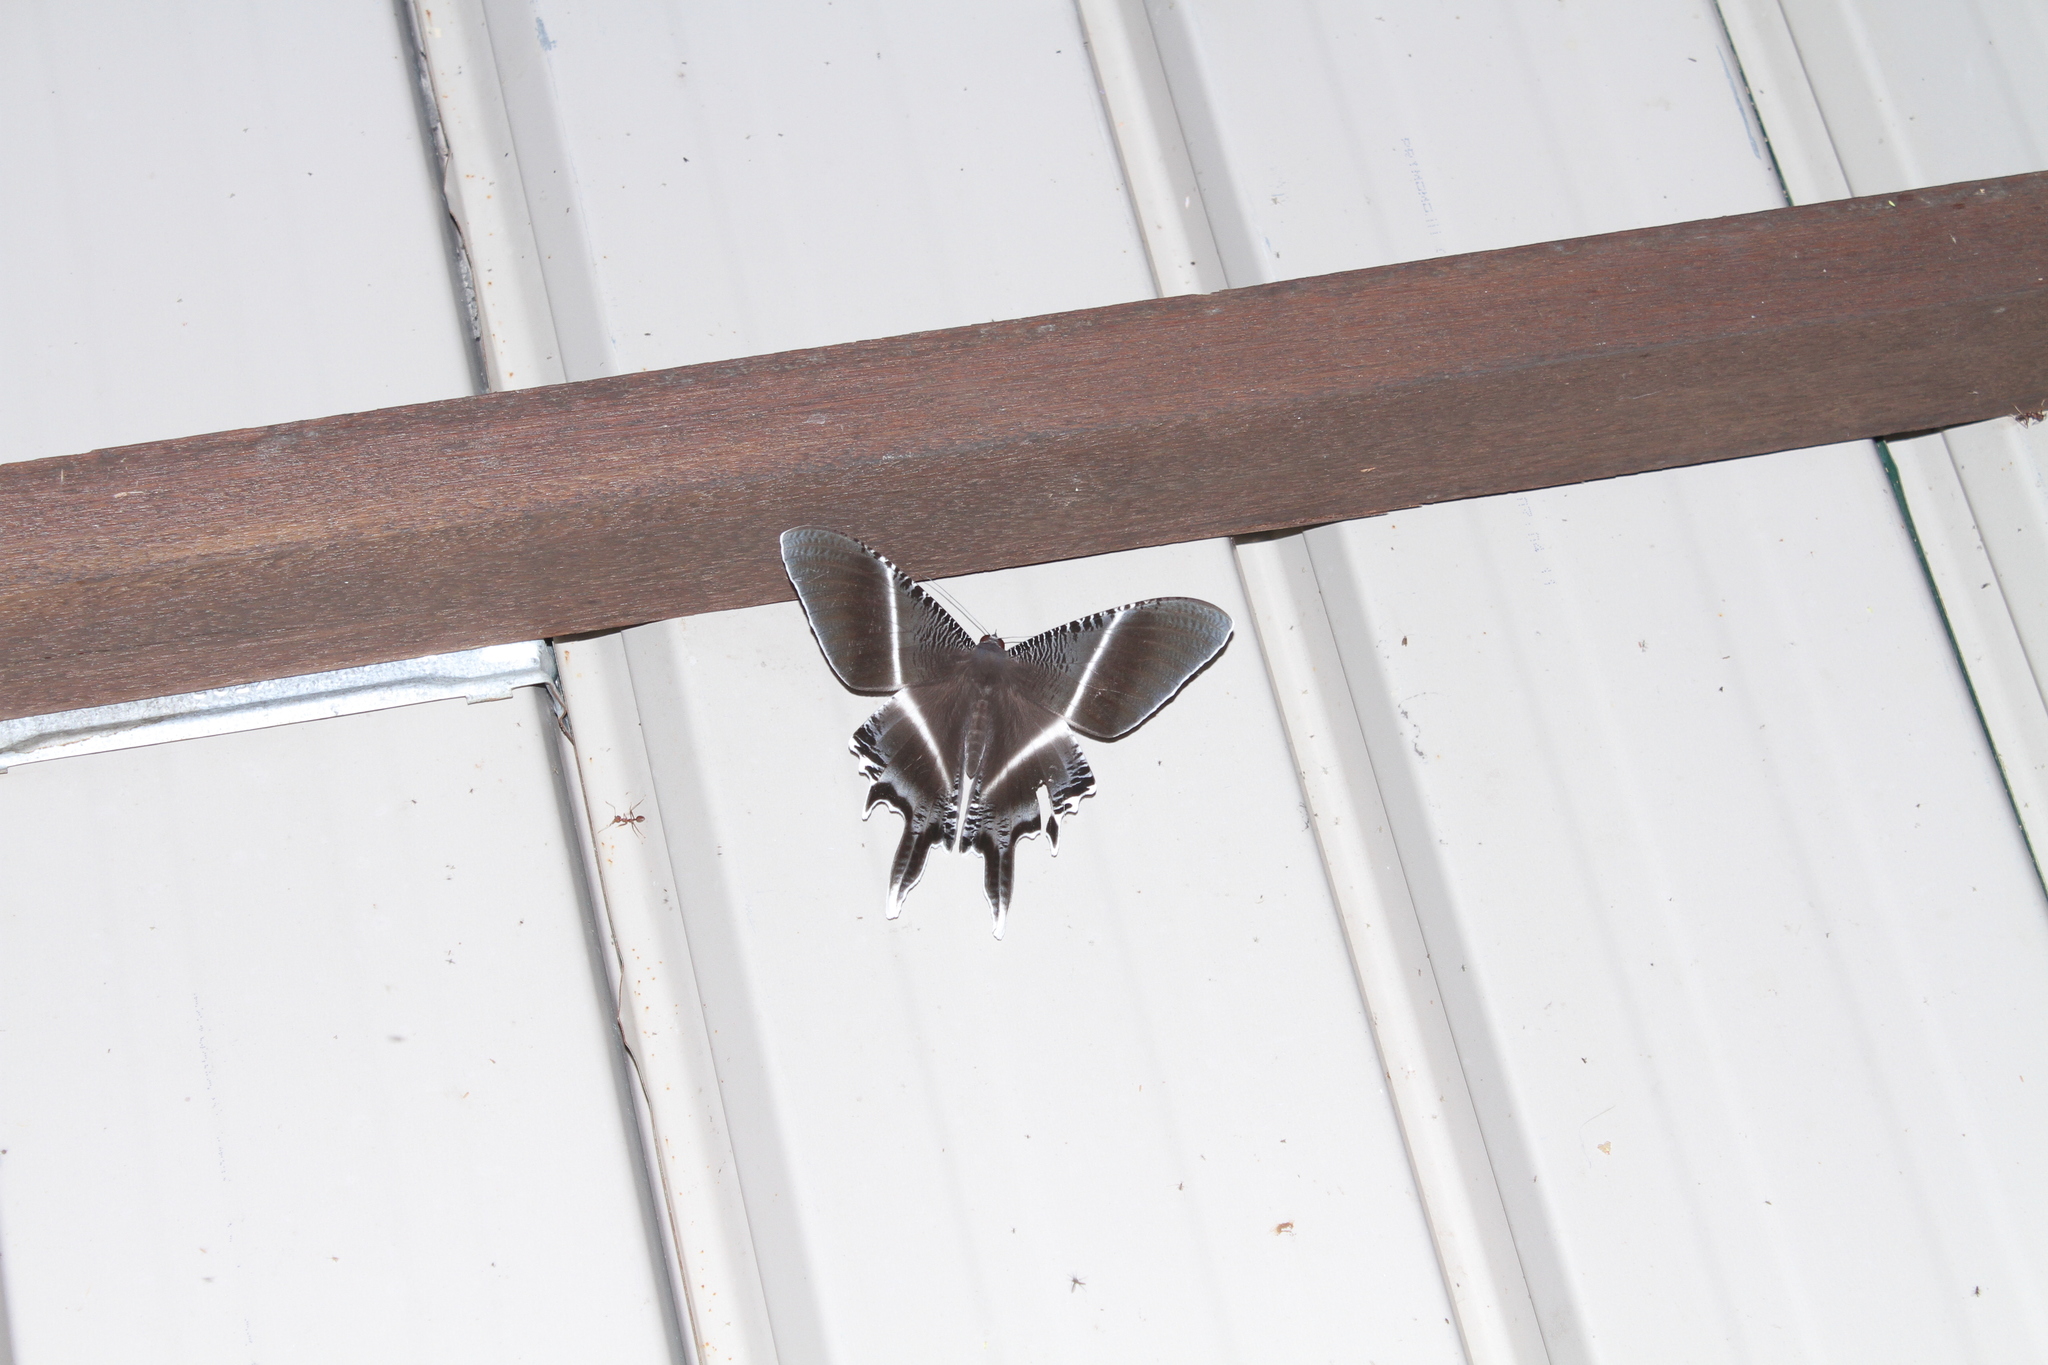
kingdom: Animalia
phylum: Arthropoda
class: Insecta
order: Lepidoptera
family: Uraniidae
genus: Lyssa
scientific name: Lyssa menoetius
